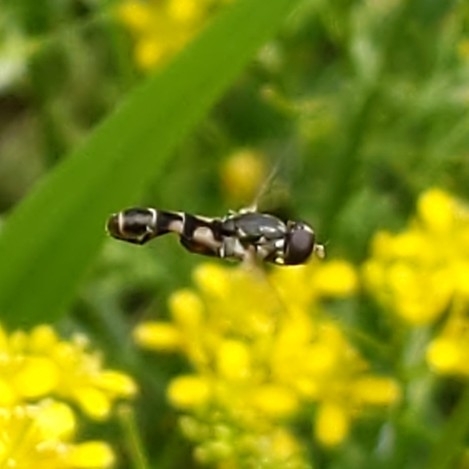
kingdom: Animalia
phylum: Arthropoda
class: Insecta
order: Diptera
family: Syrphidae
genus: Syritta
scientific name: Syritta pipiens
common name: Hover fly
